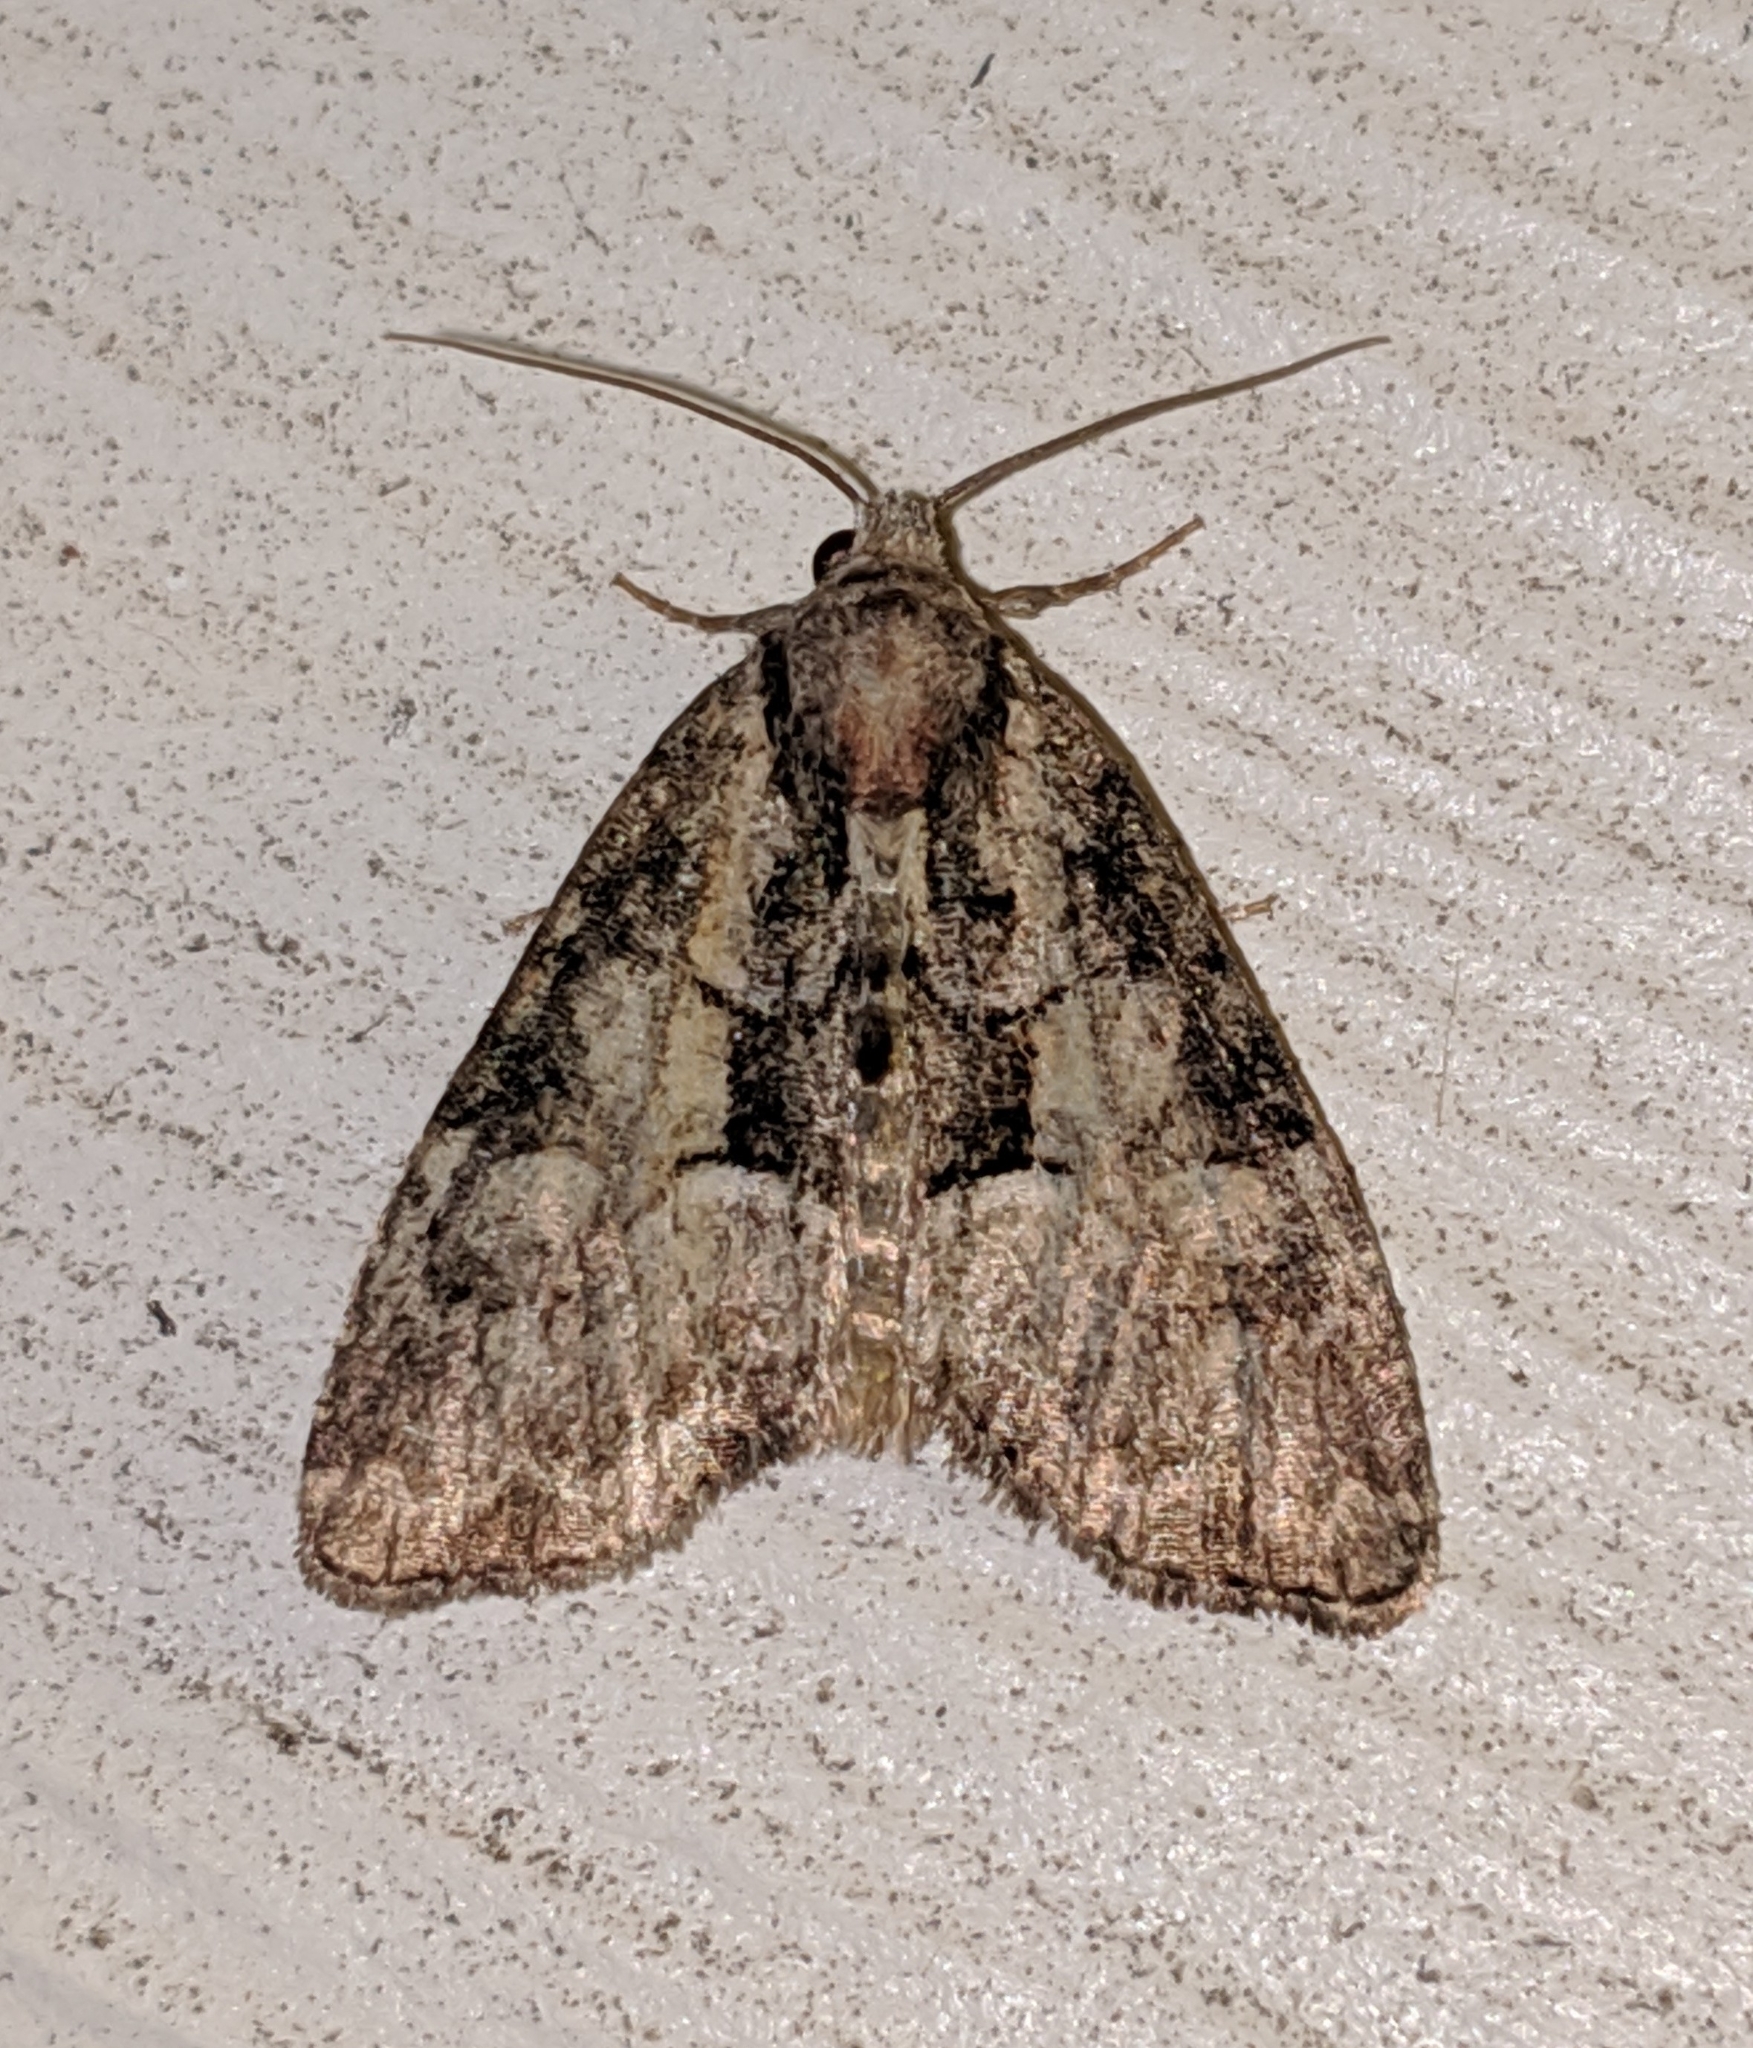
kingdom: Animalia
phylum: Arthropoda
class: Insecta
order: Lepidoptera
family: Noctuidae
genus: Neoligia
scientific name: Neoligia subjuncta
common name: Connected brocade
